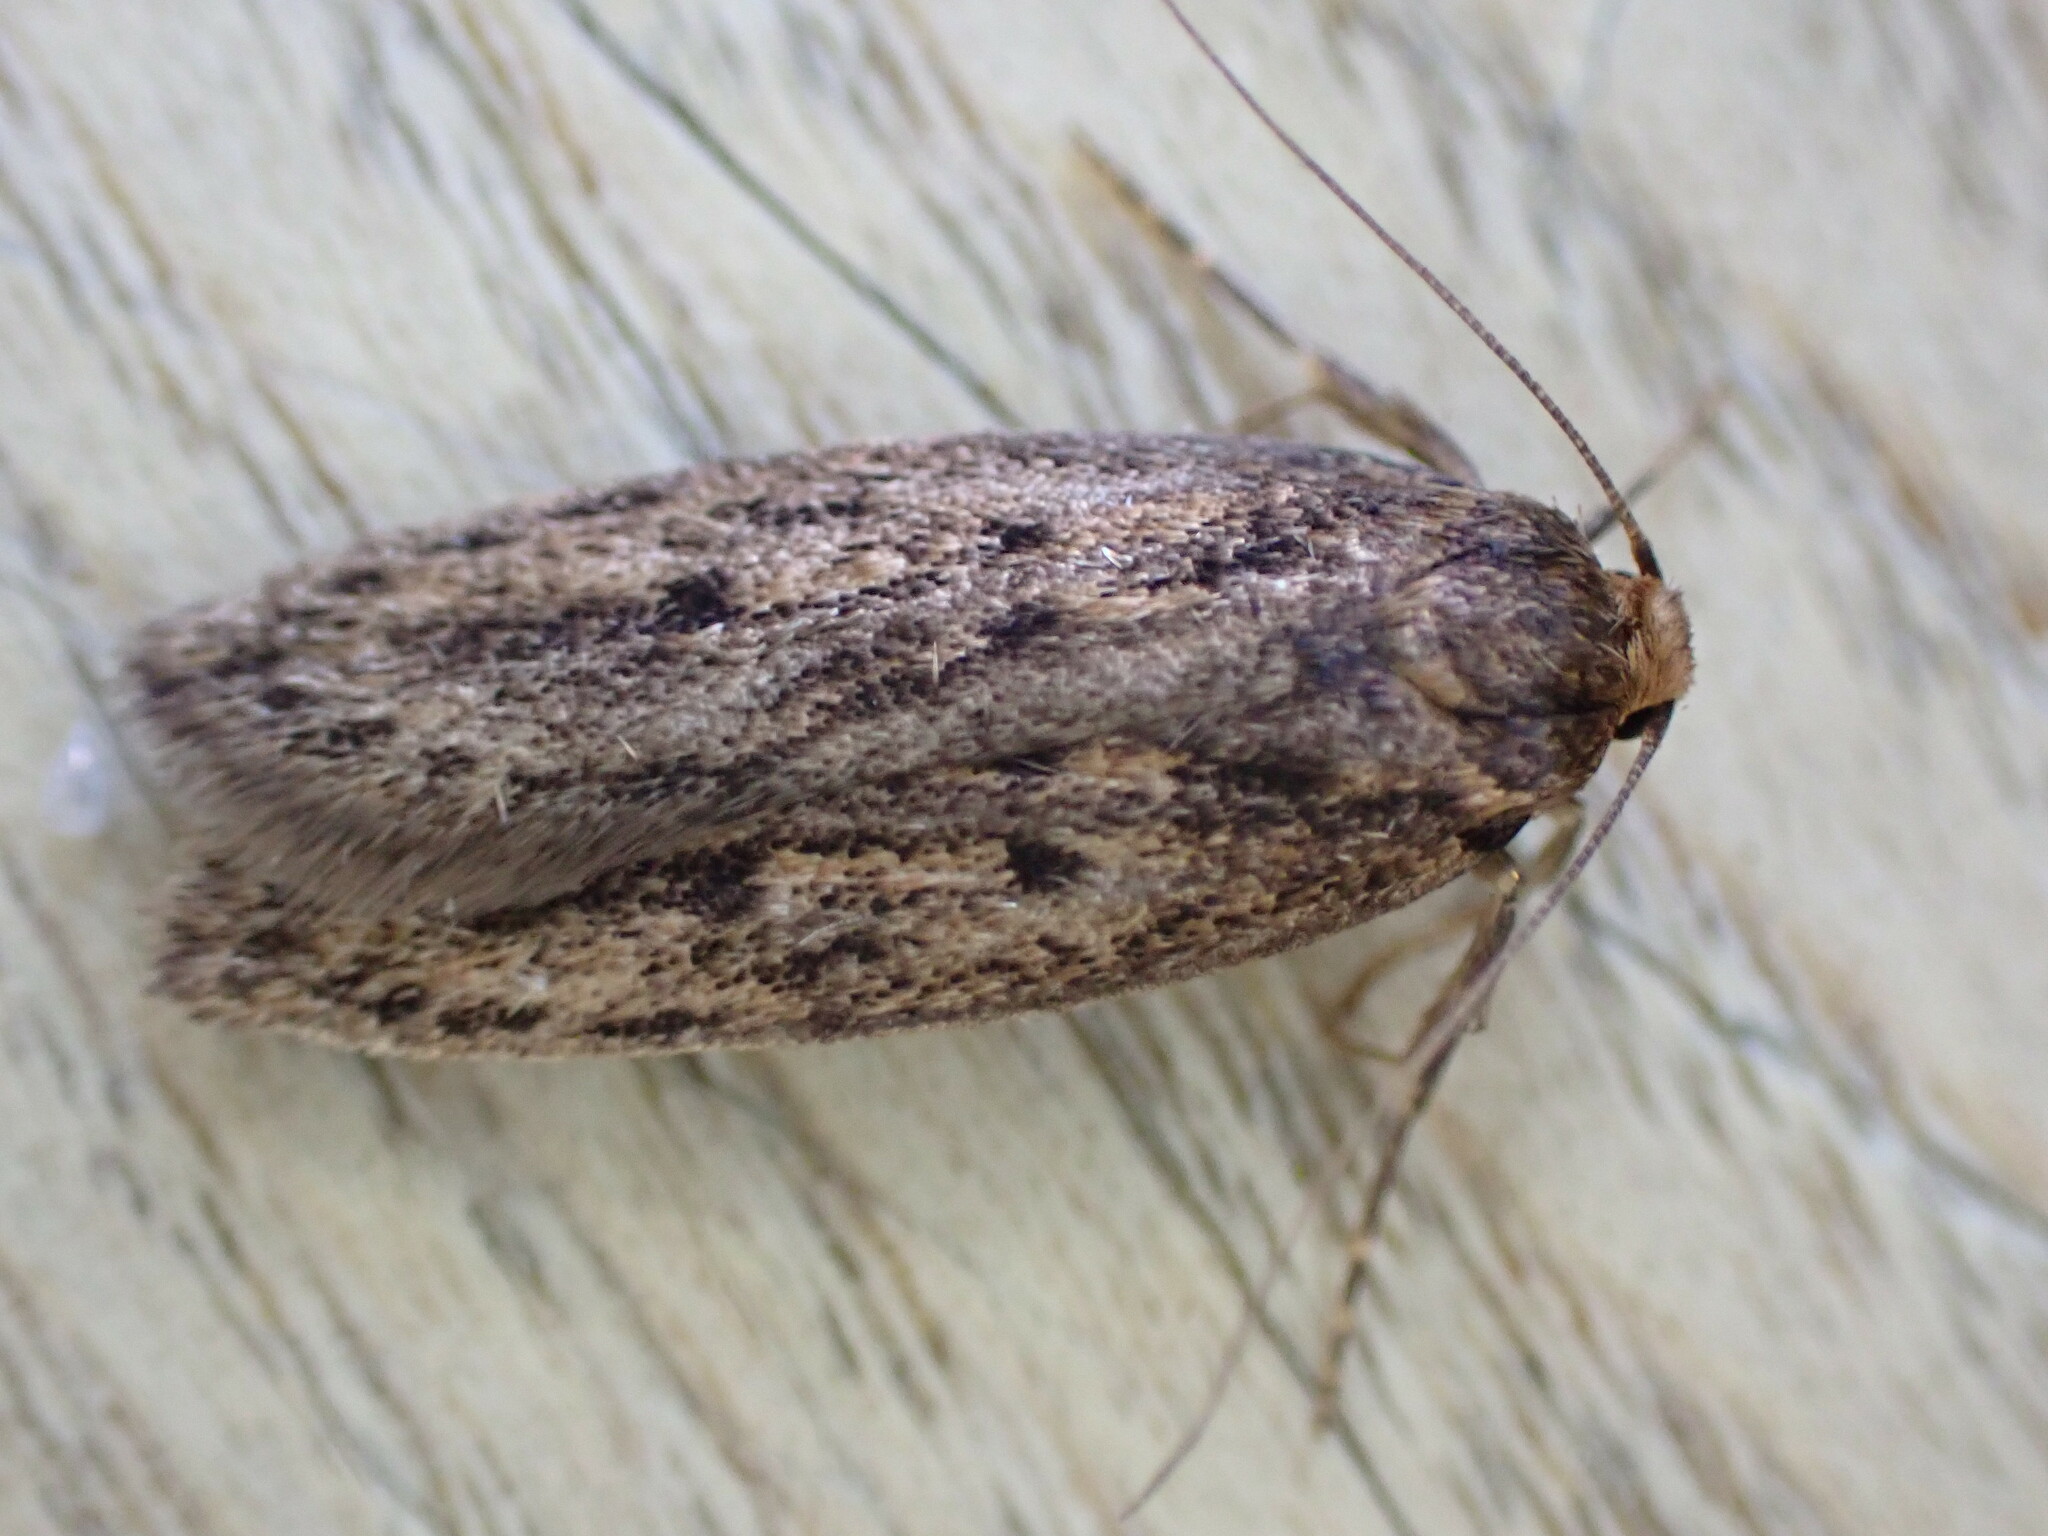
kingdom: Animalia
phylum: Arthropoda
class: Insecta
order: Lepidoptera
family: Oecophoridae
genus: Hofmannophila
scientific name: Hofmannophila pseudospretella
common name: Brown house moth
